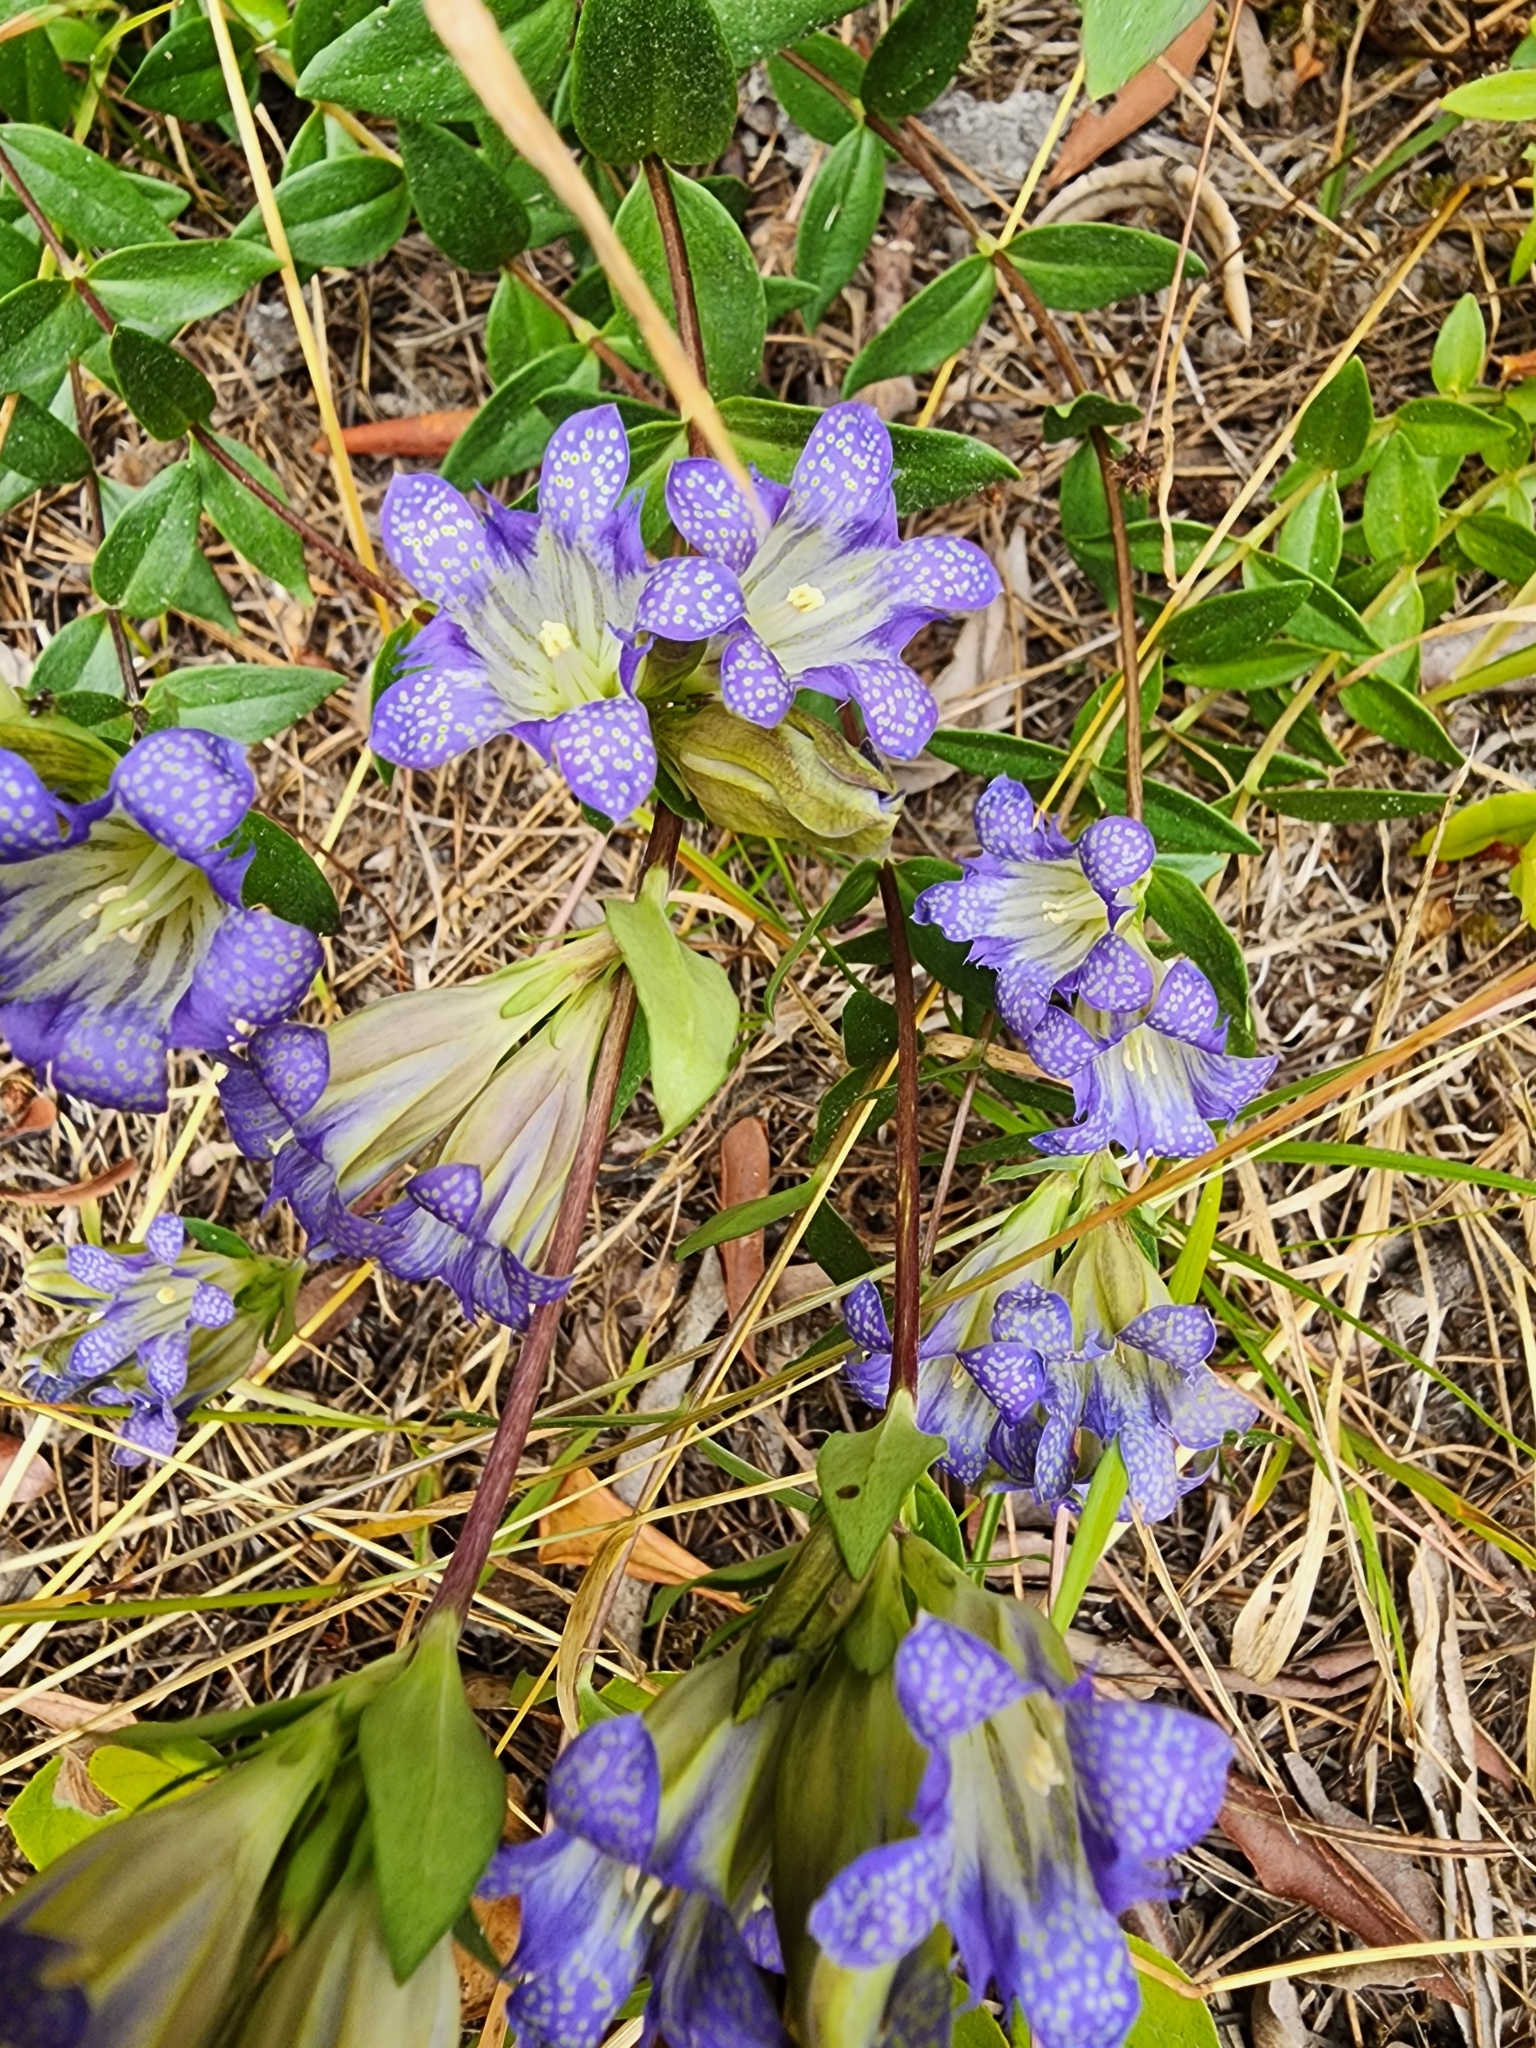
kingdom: Plantae
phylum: Tracheophyta
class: Magnoliopsida
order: Gentianales
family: Gentianaceae
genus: Gentiana
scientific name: Gentiana affinis
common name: Rocky mountain gentian
